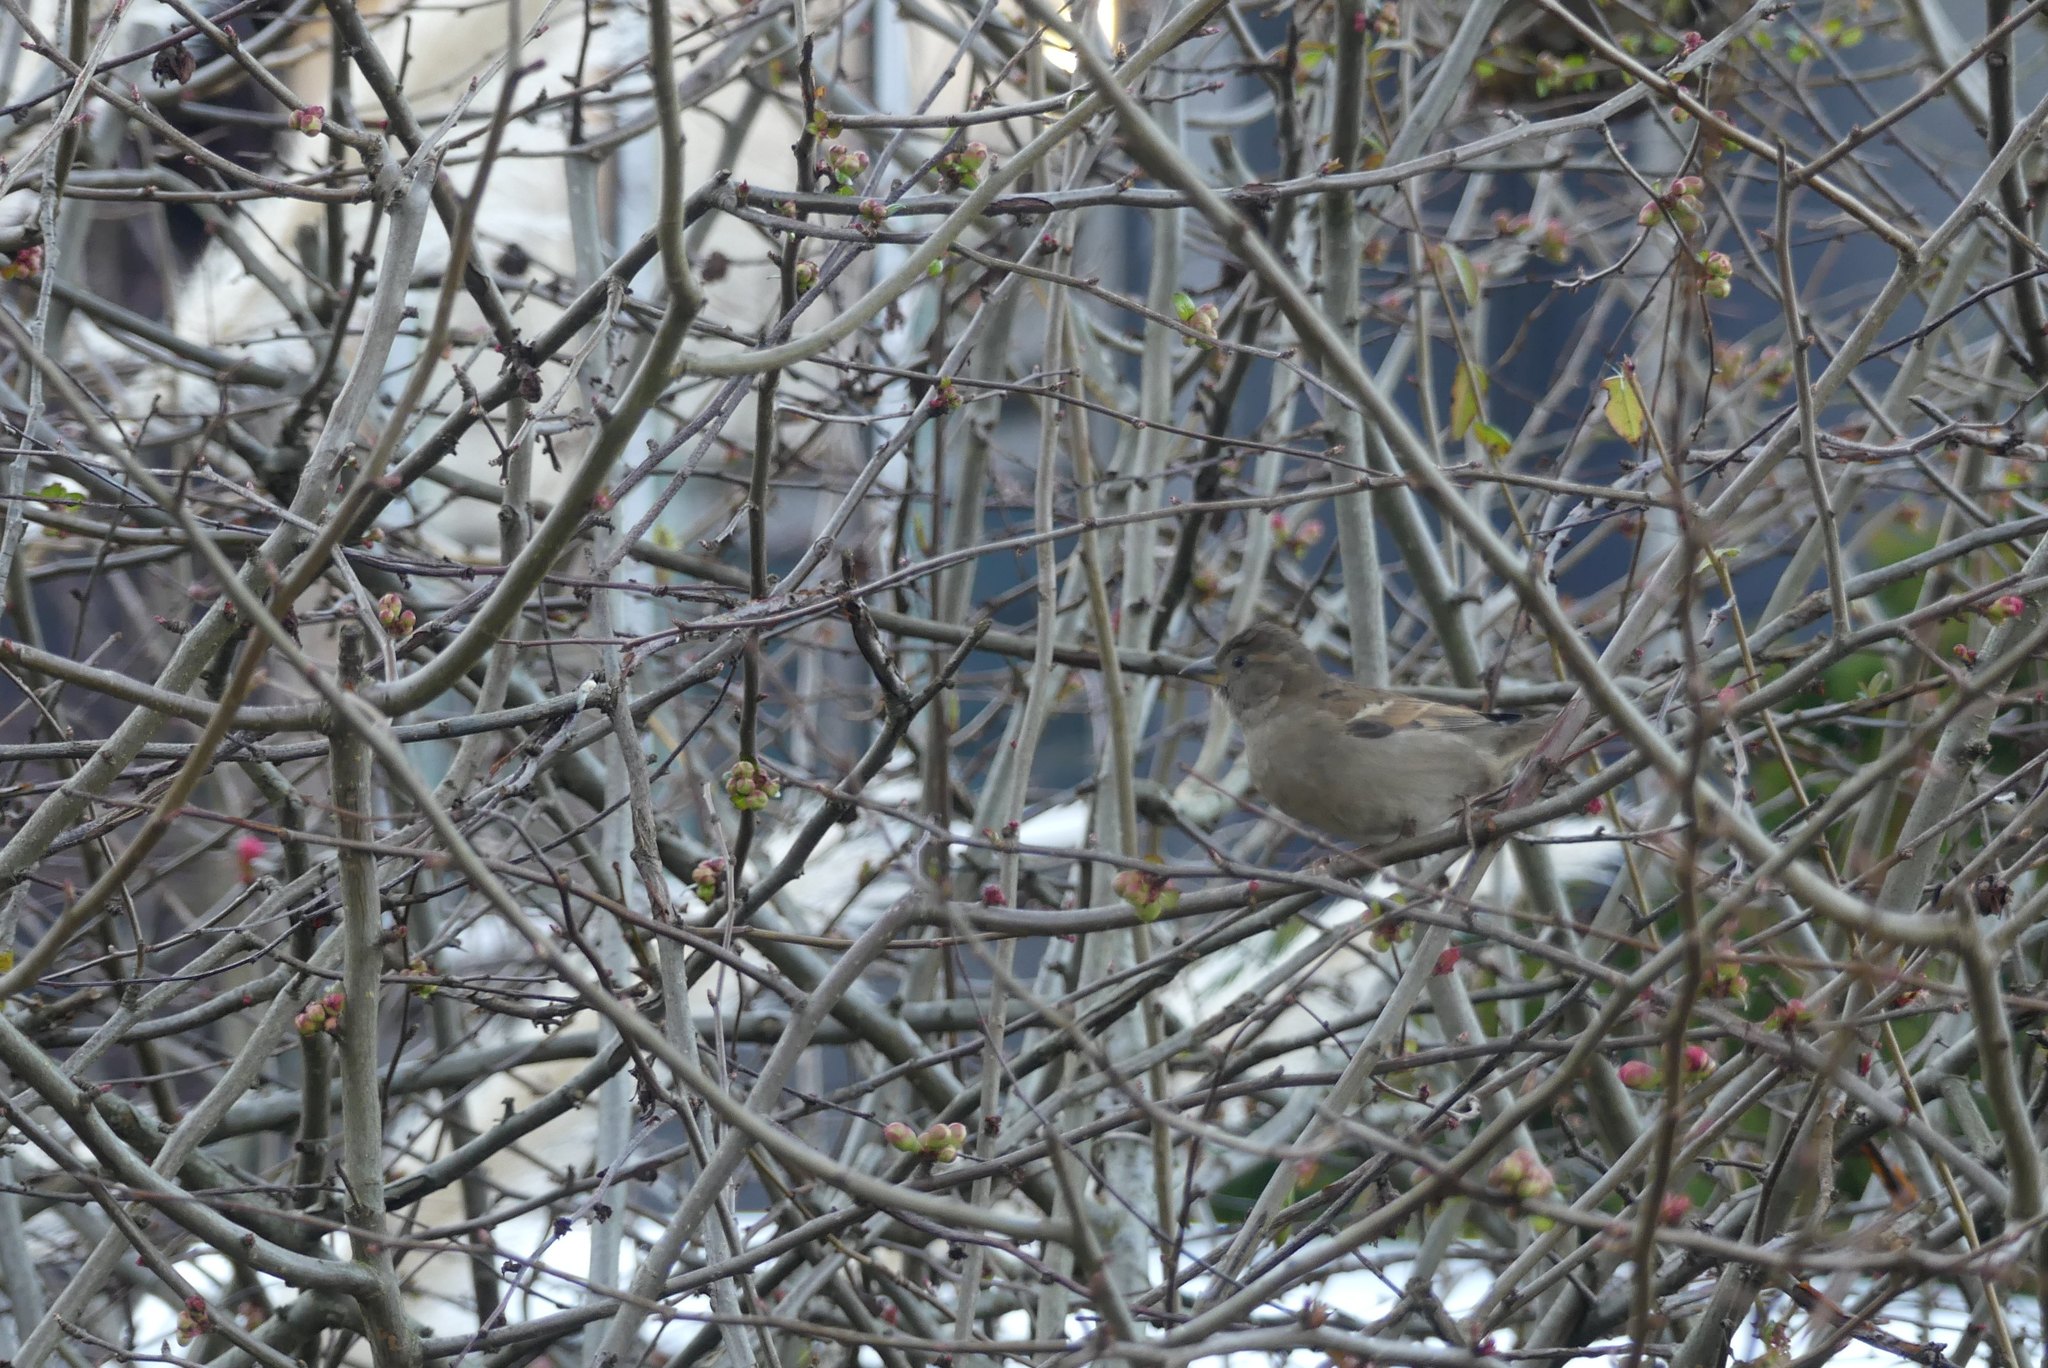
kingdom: Animalia
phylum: Chordata
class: Aves
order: Passeriformes
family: Passeridae
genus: Passer
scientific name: Passer domesticus
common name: House sparrow
